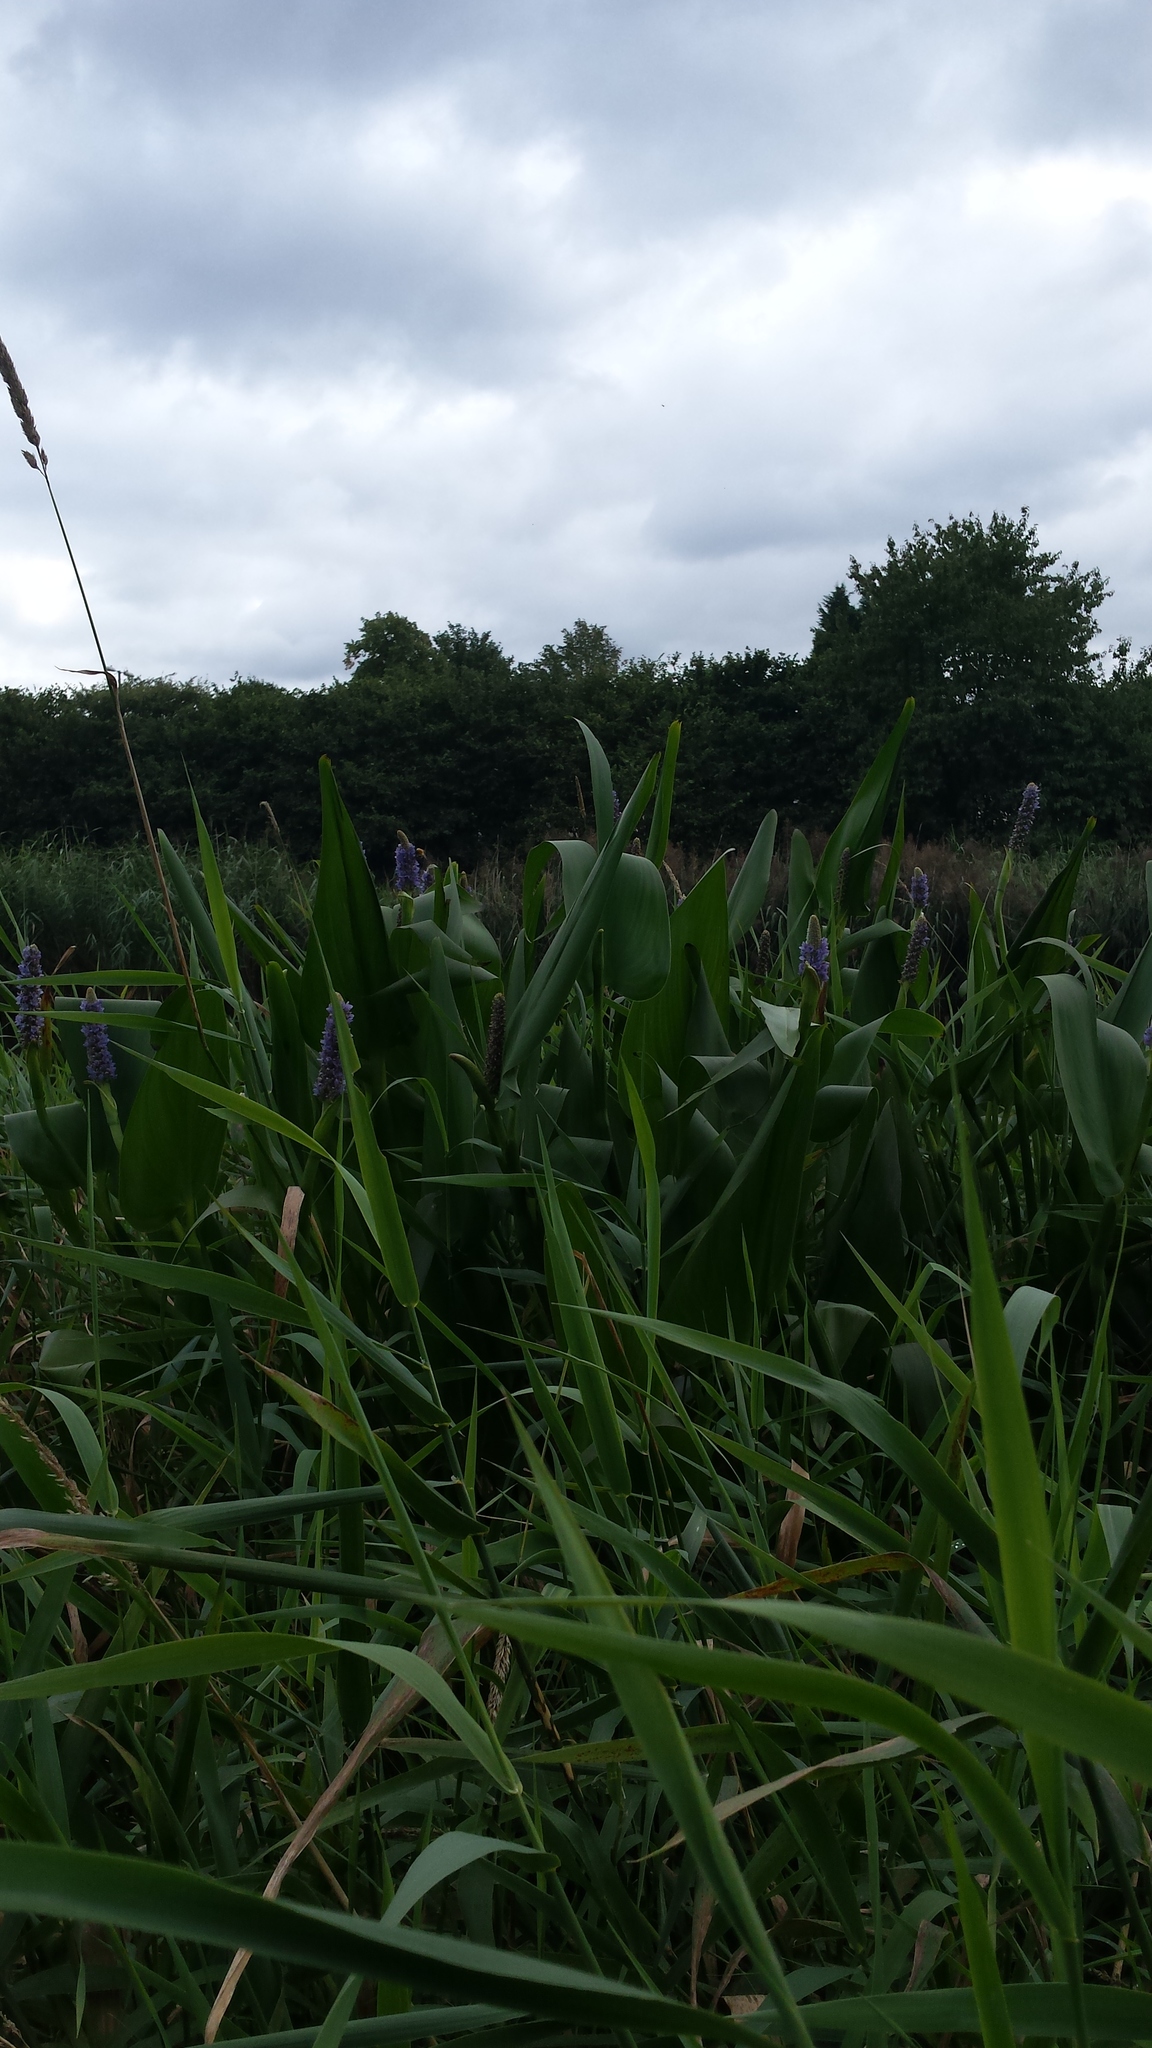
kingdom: Plantae
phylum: Tracheophyta
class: Liliopsida
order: Commelinales
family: Pontederiaceae
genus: Pontederia
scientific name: Pontederia cordata
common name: Pickerelweed
